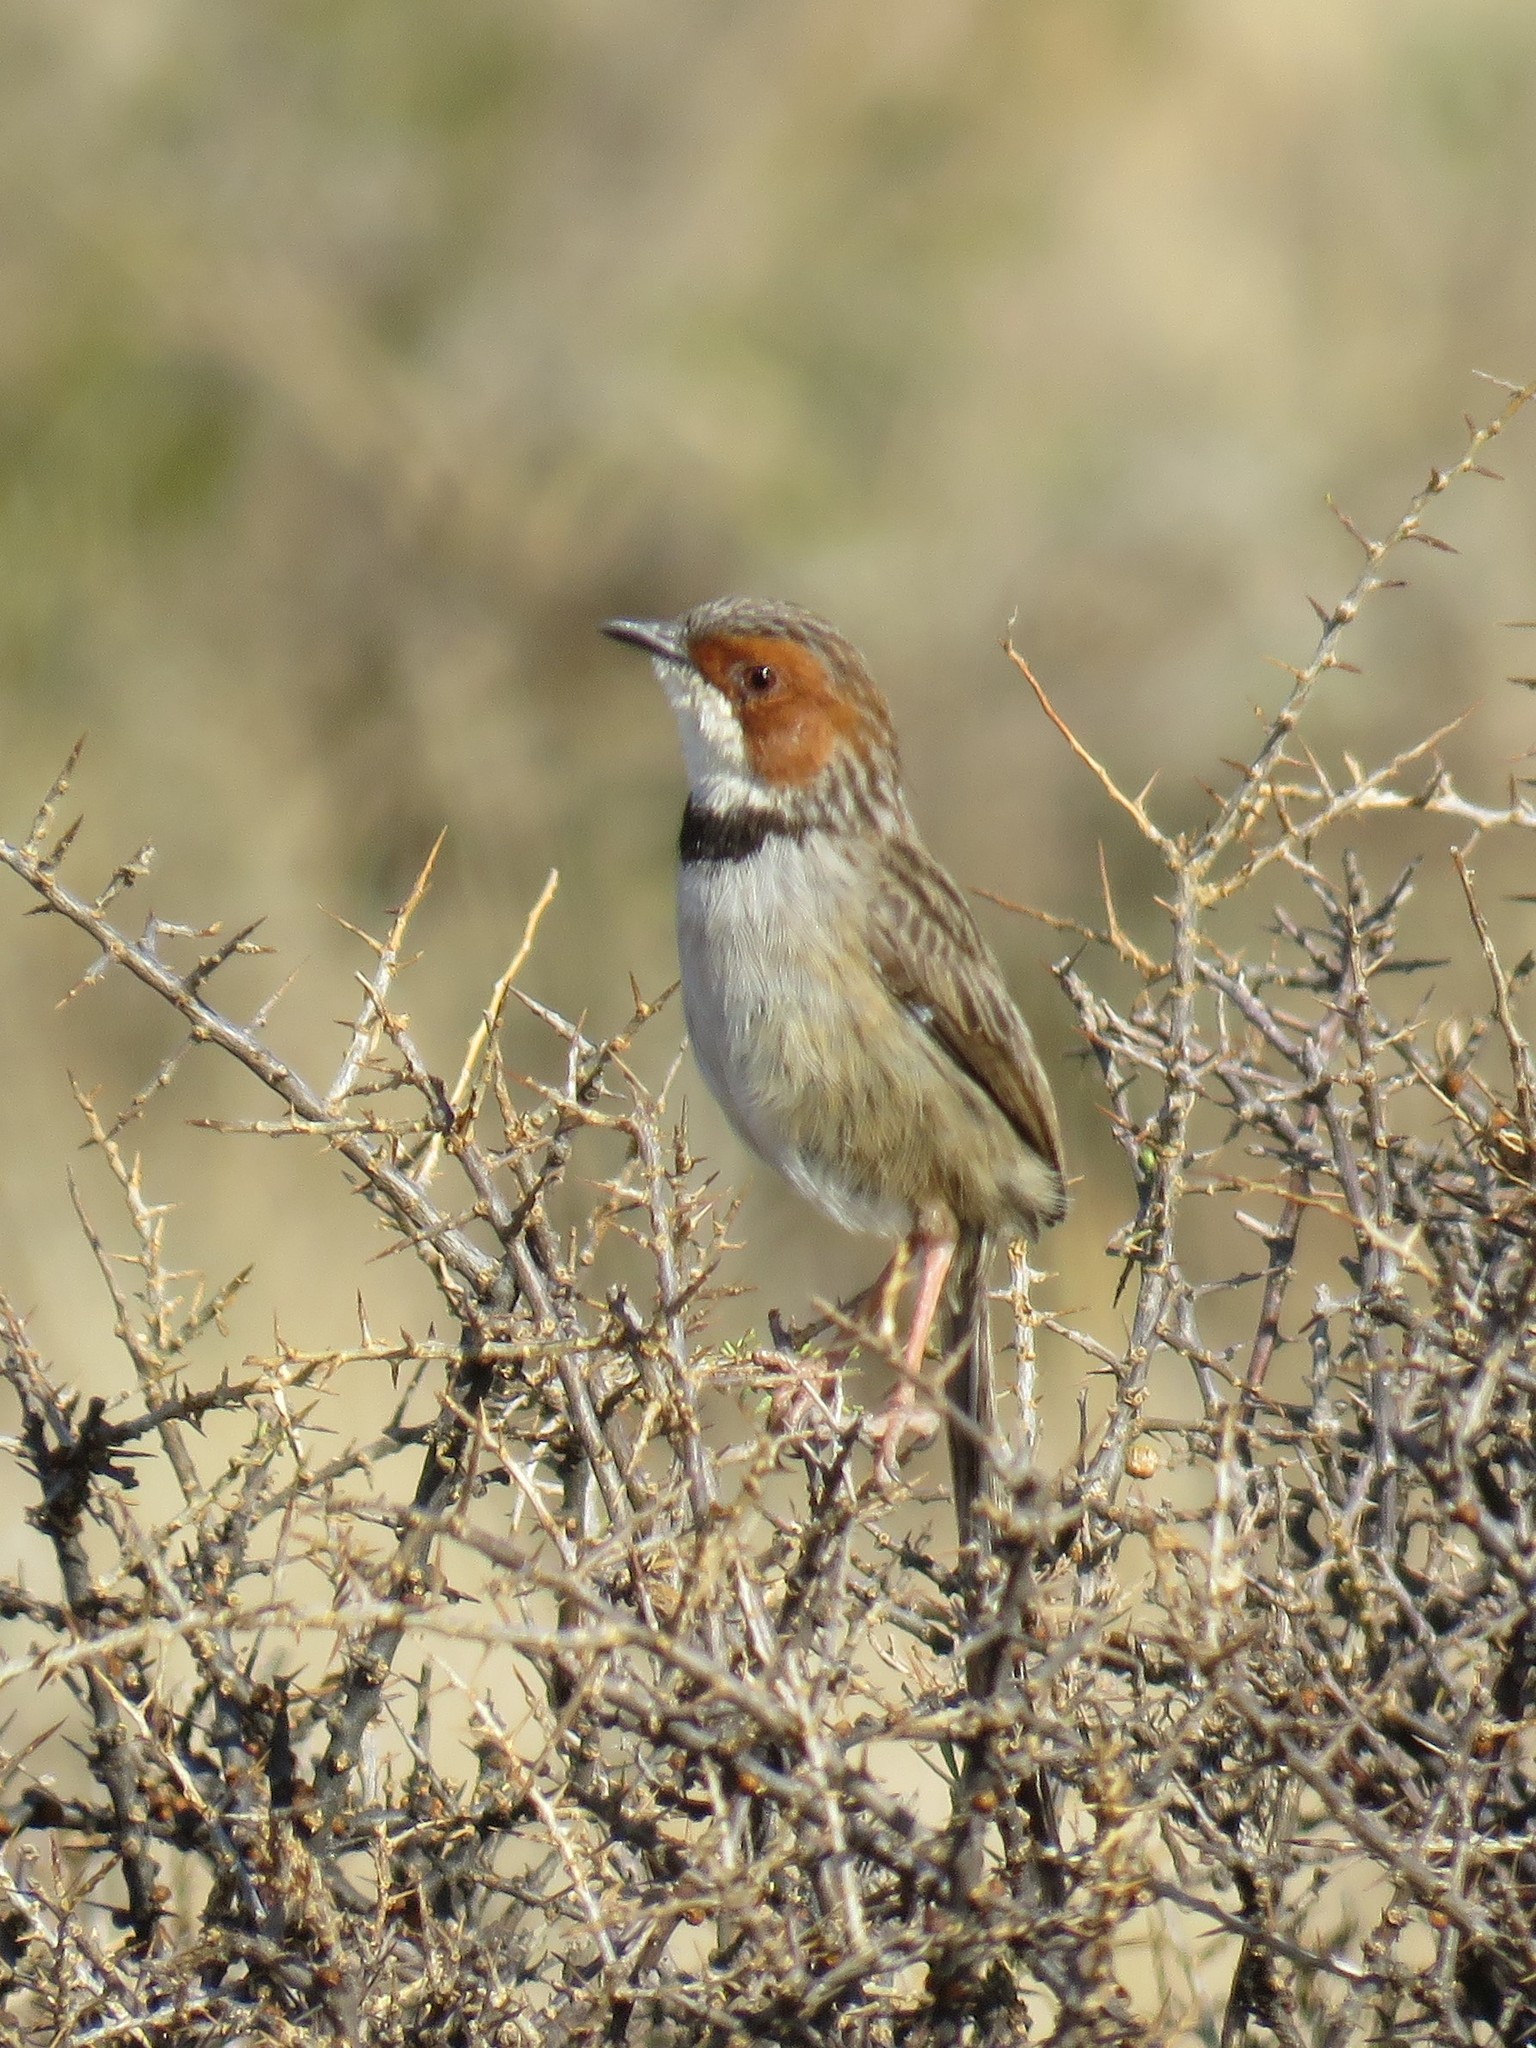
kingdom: Animalia
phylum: Chordata
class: Aves
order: Passeriformes
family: Cisticolidae
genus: Malcorus
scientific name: Malcorus pectoralis
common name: Rufous-eared warbler
